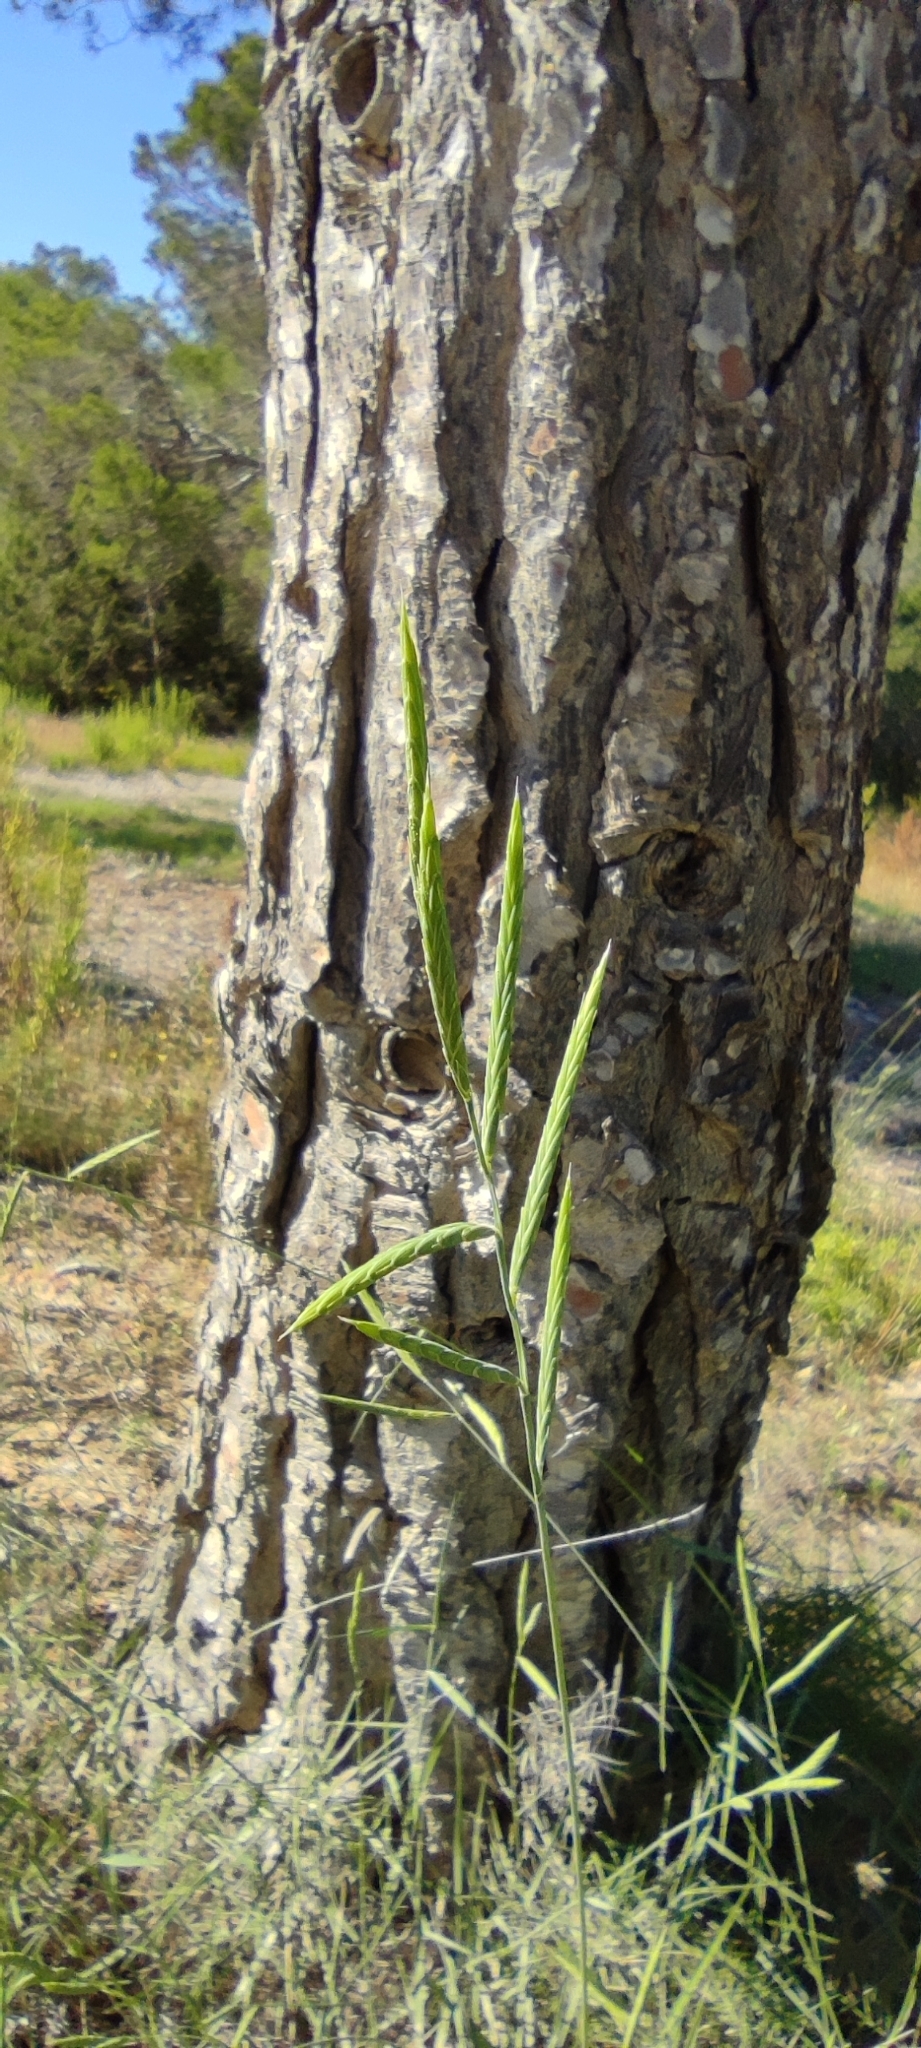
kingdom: Plantae
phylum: Tracheophyta
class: Liliopsida
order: Poales
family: Poaceae
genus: Brachypodium
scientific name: Brachypodium retusum
